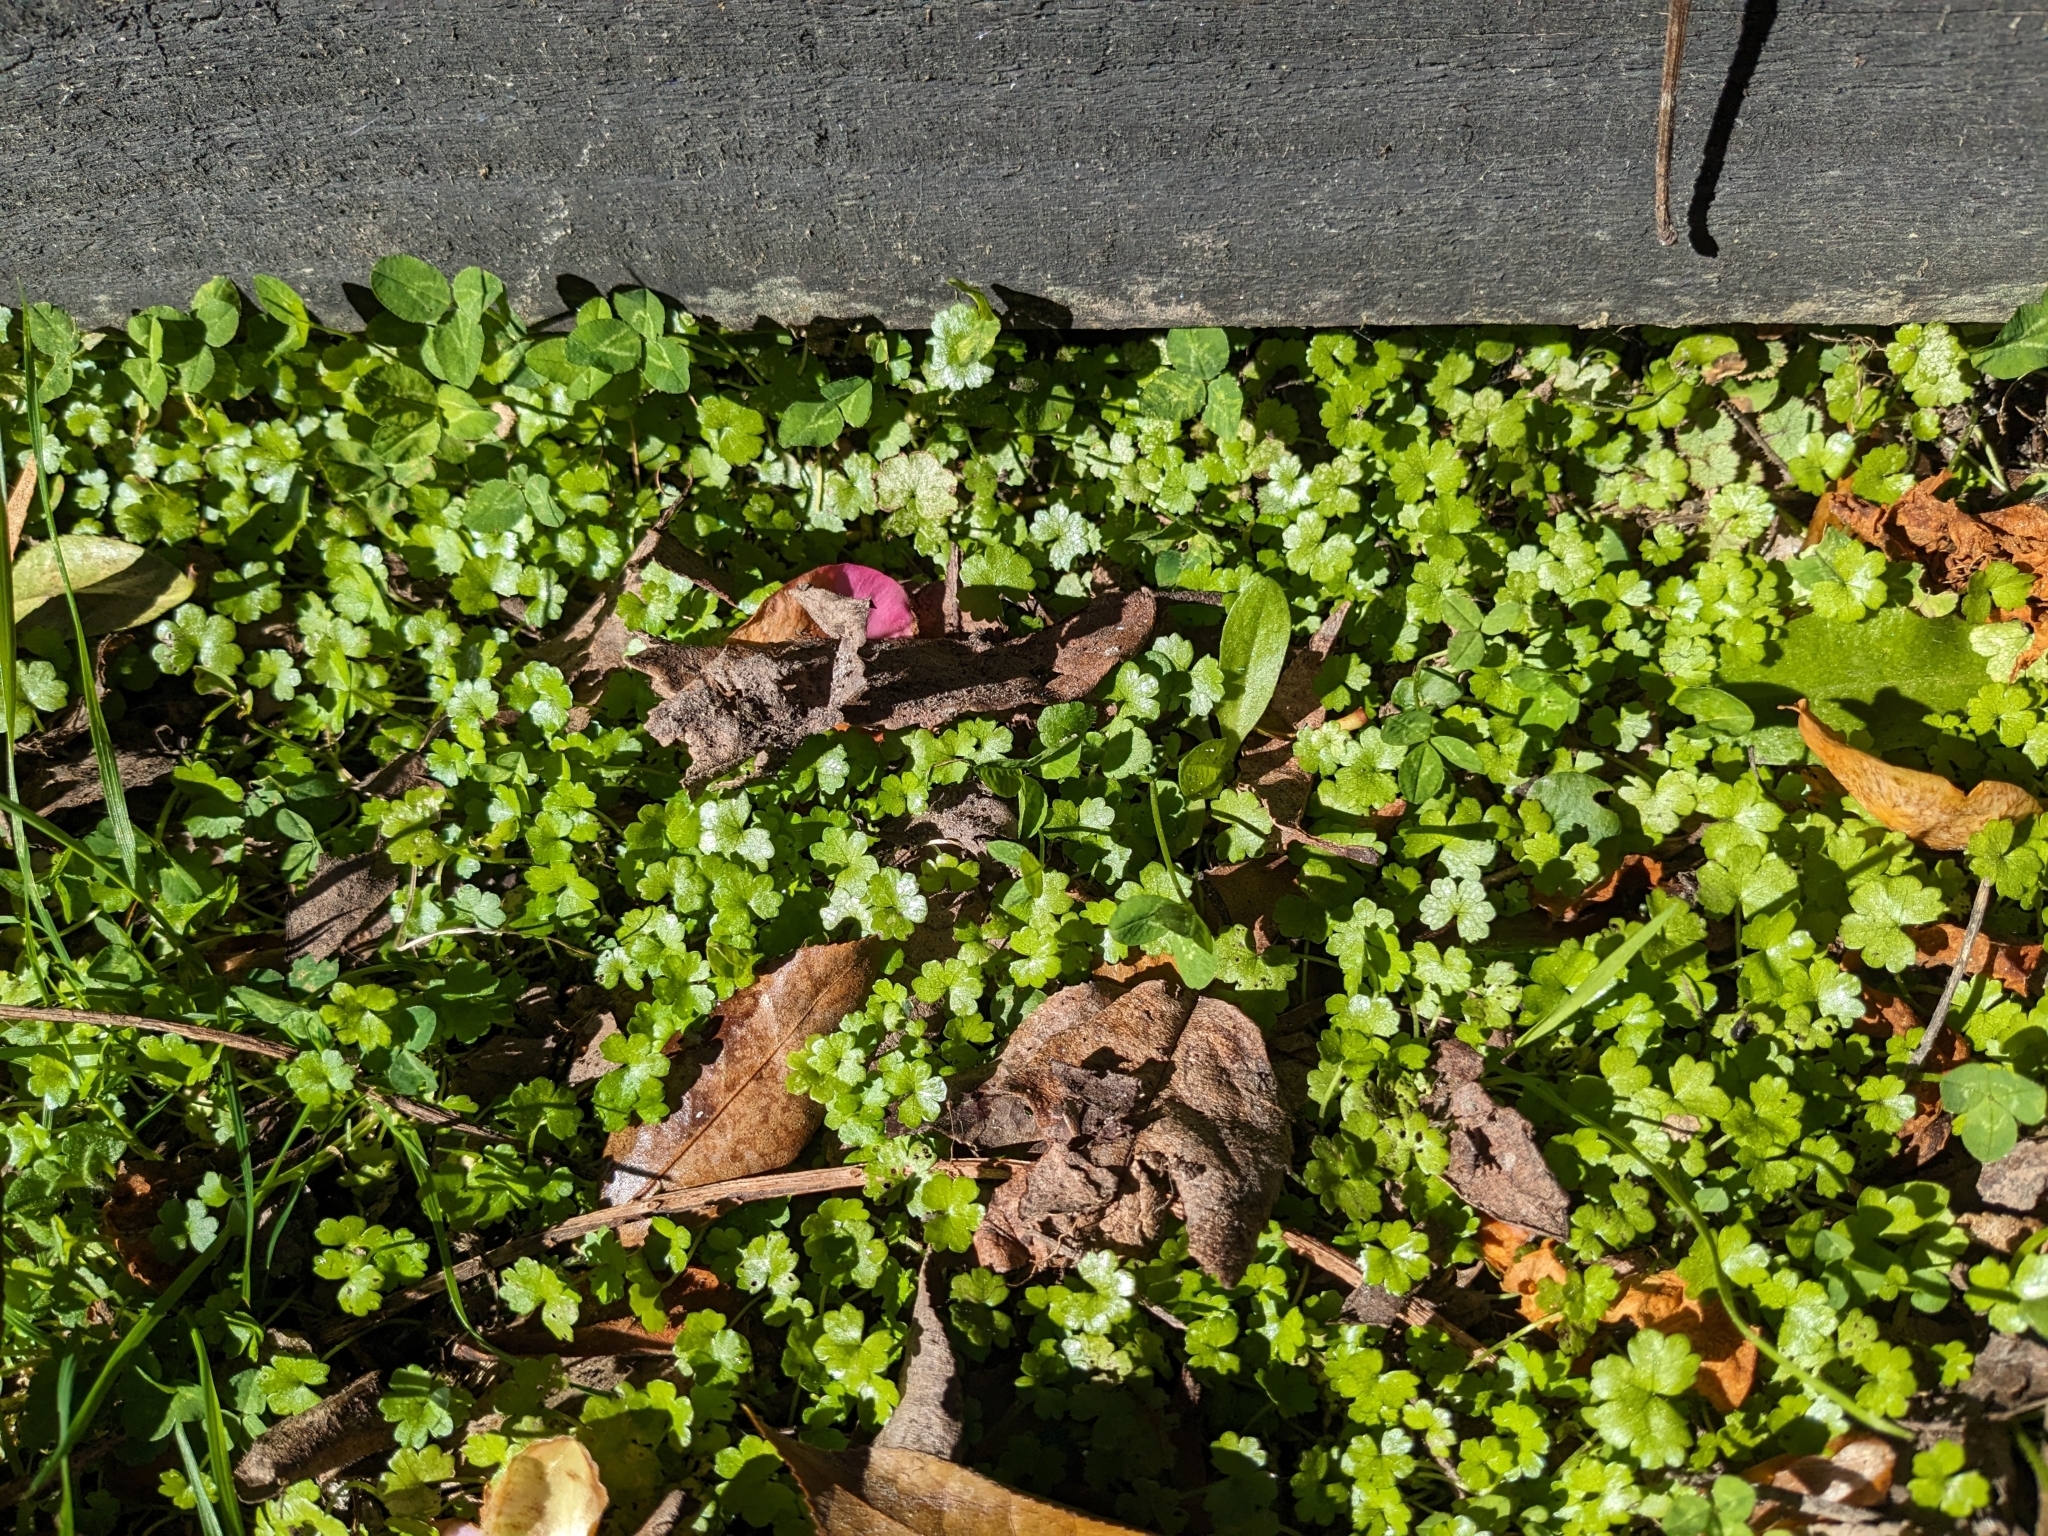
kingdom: Plantae
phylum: Tracheophyta
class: Magnoliopsida
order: Apiales
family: Araliaceae
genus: Hydrocotyle
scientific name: Hydrocotyle heteromeria
